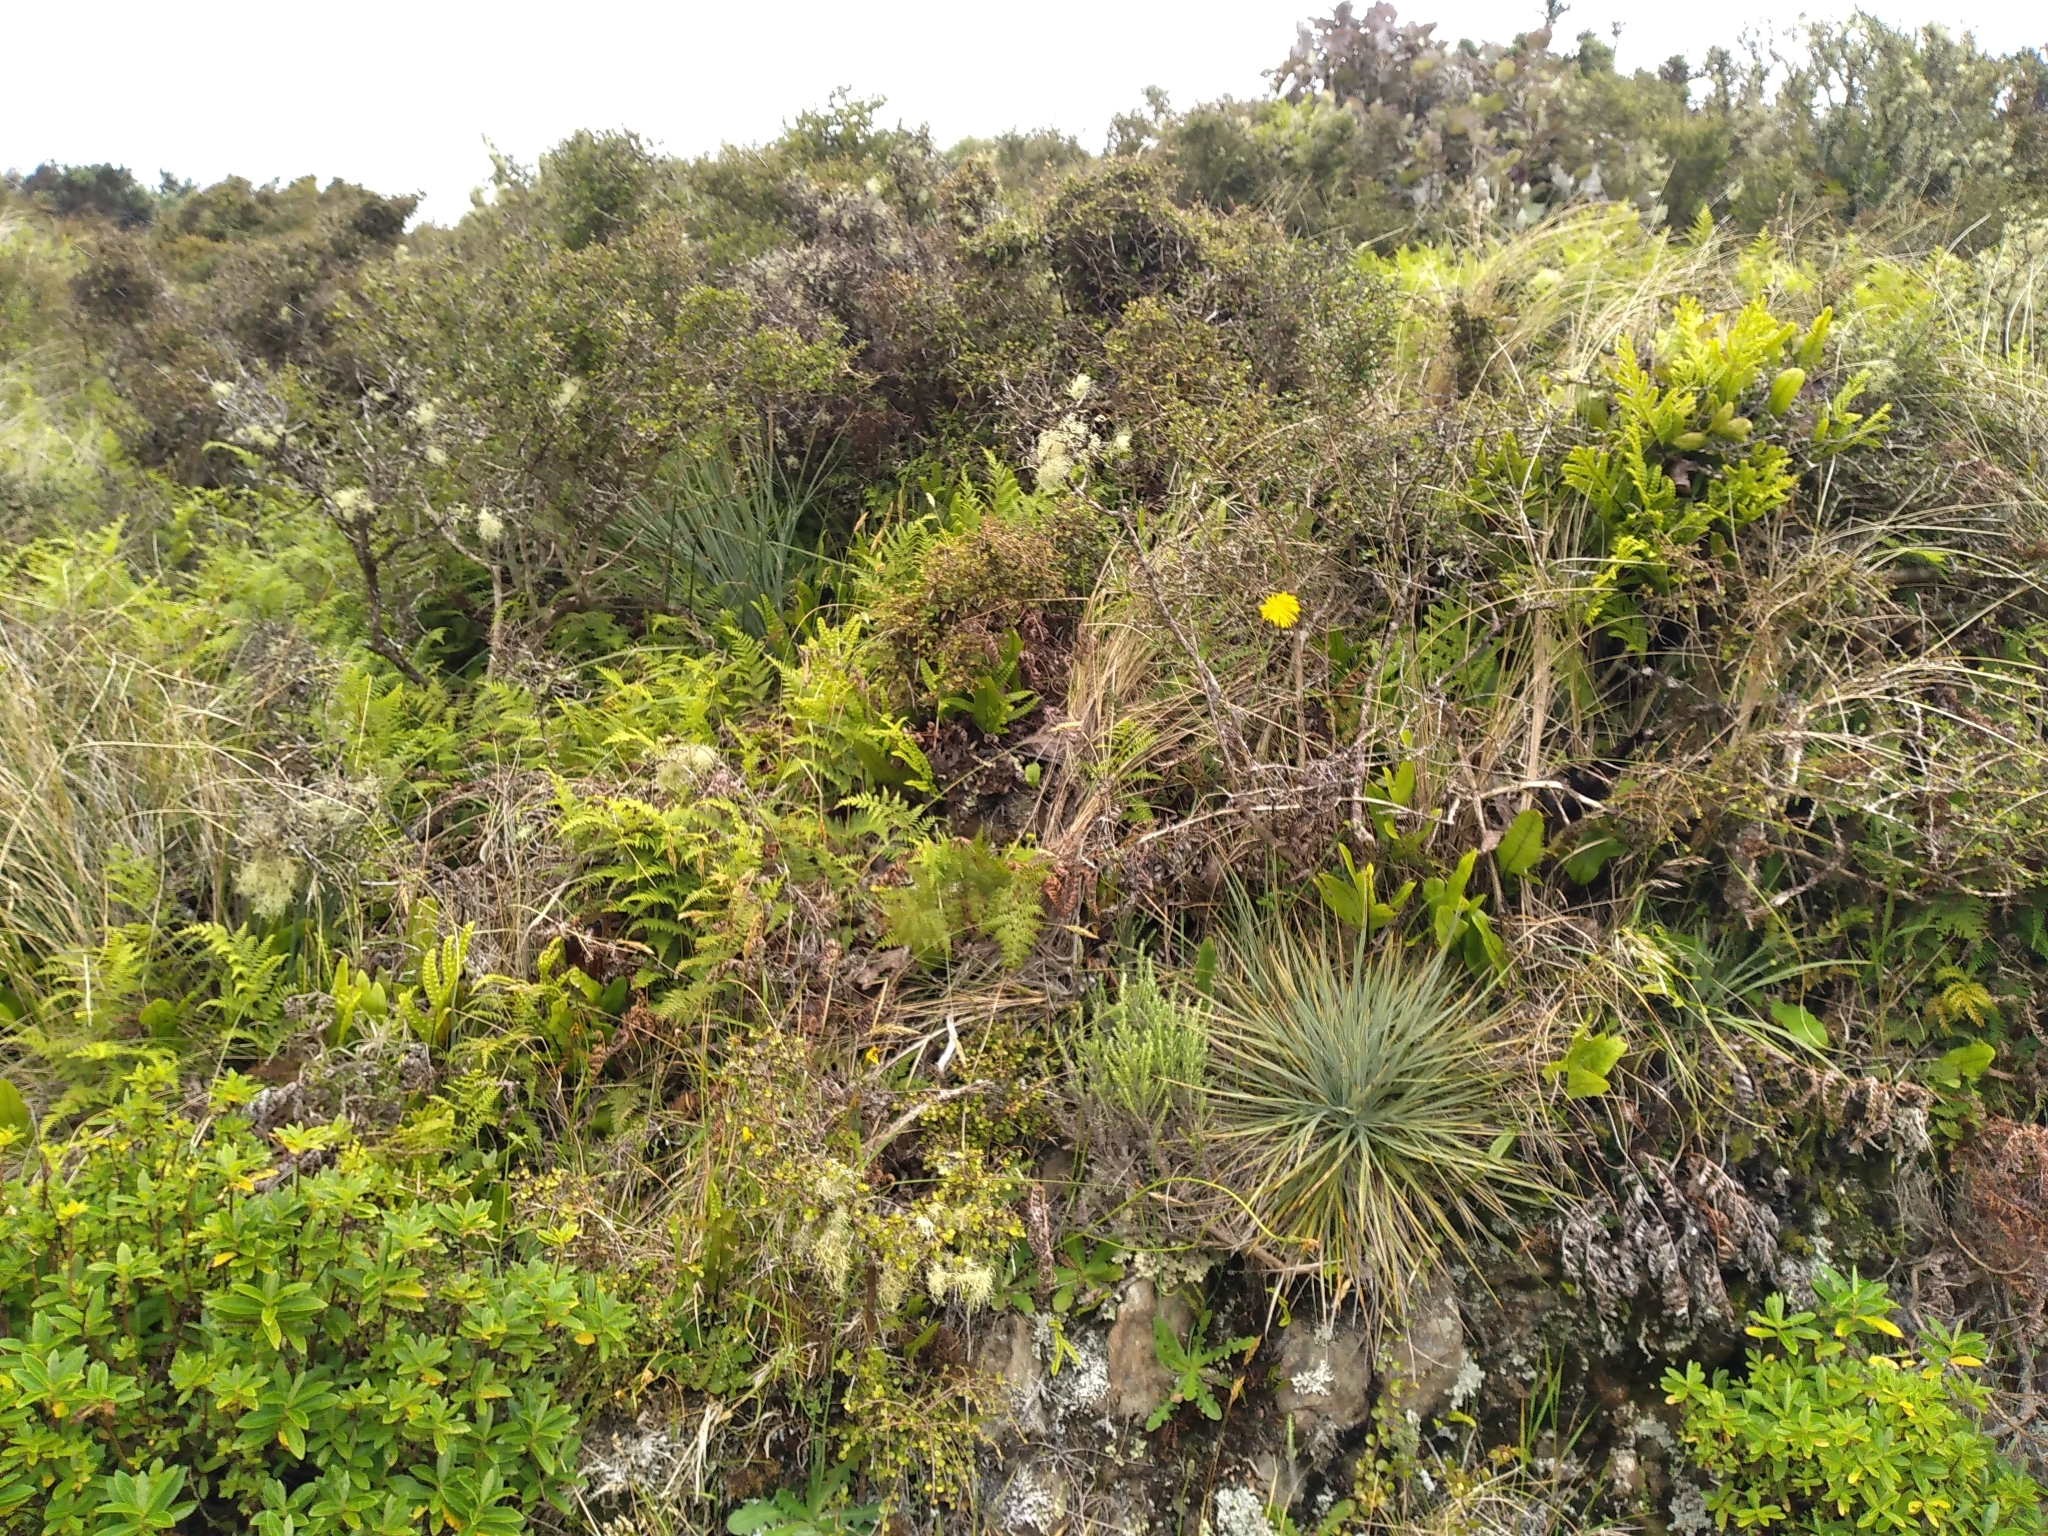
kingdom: Plantae
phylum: Tracheophyta
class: Magnoliopsida
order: Apiales
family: Apiaceae
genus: Aciphylla
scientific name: Aciphylla squarrosa
